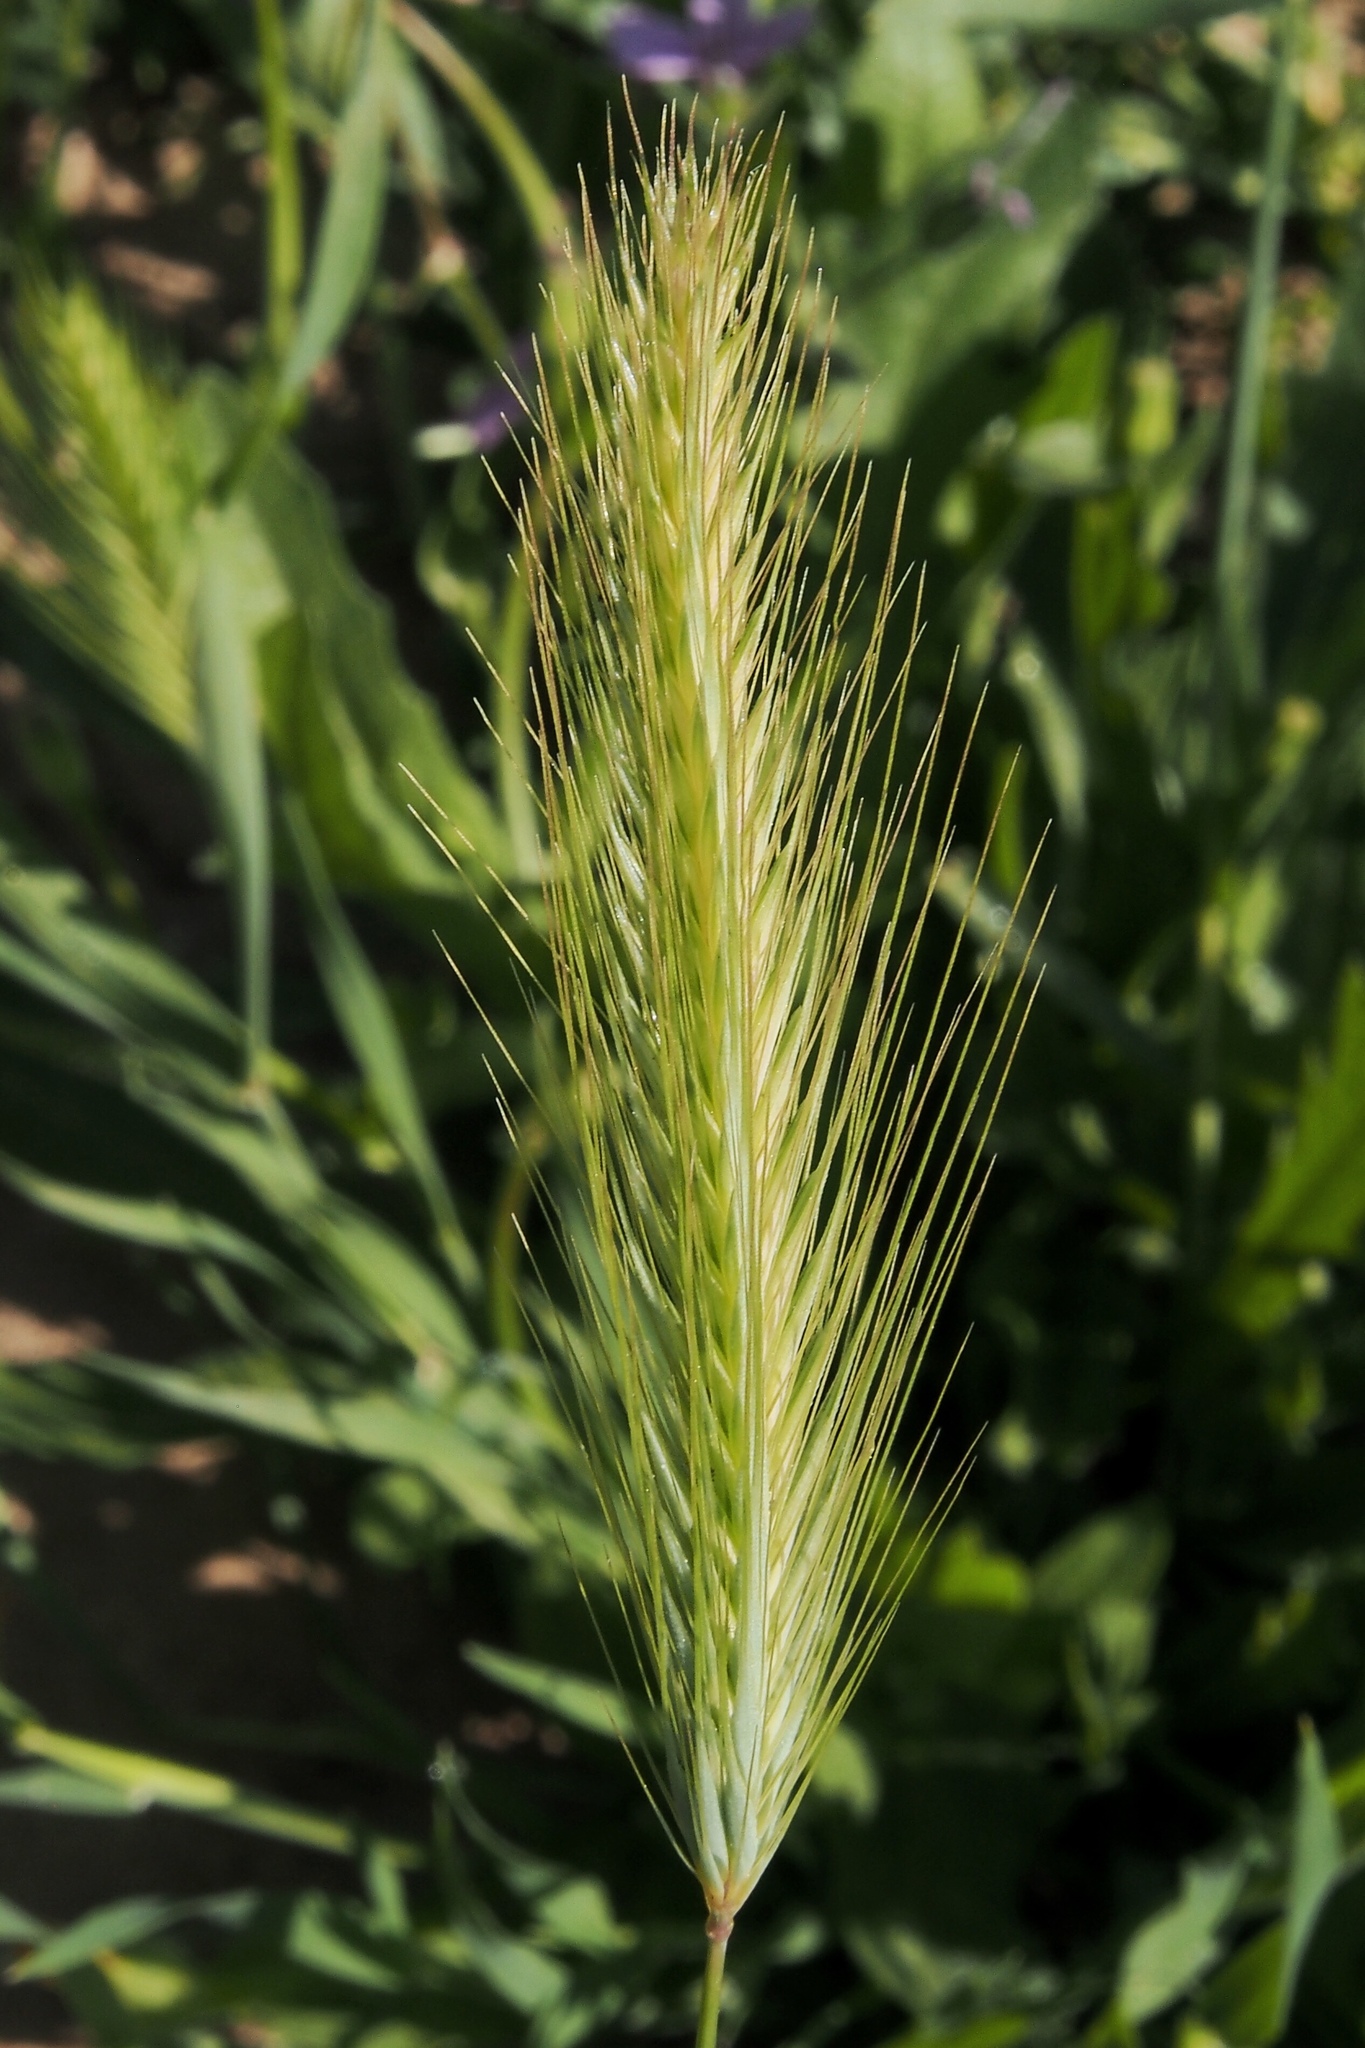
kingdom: Plantae
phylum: Tracheophyta
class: Liliopsida
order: Poales
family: Poaceae
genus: Hordeum
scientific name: Hordeum murinum
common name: Wall barley
